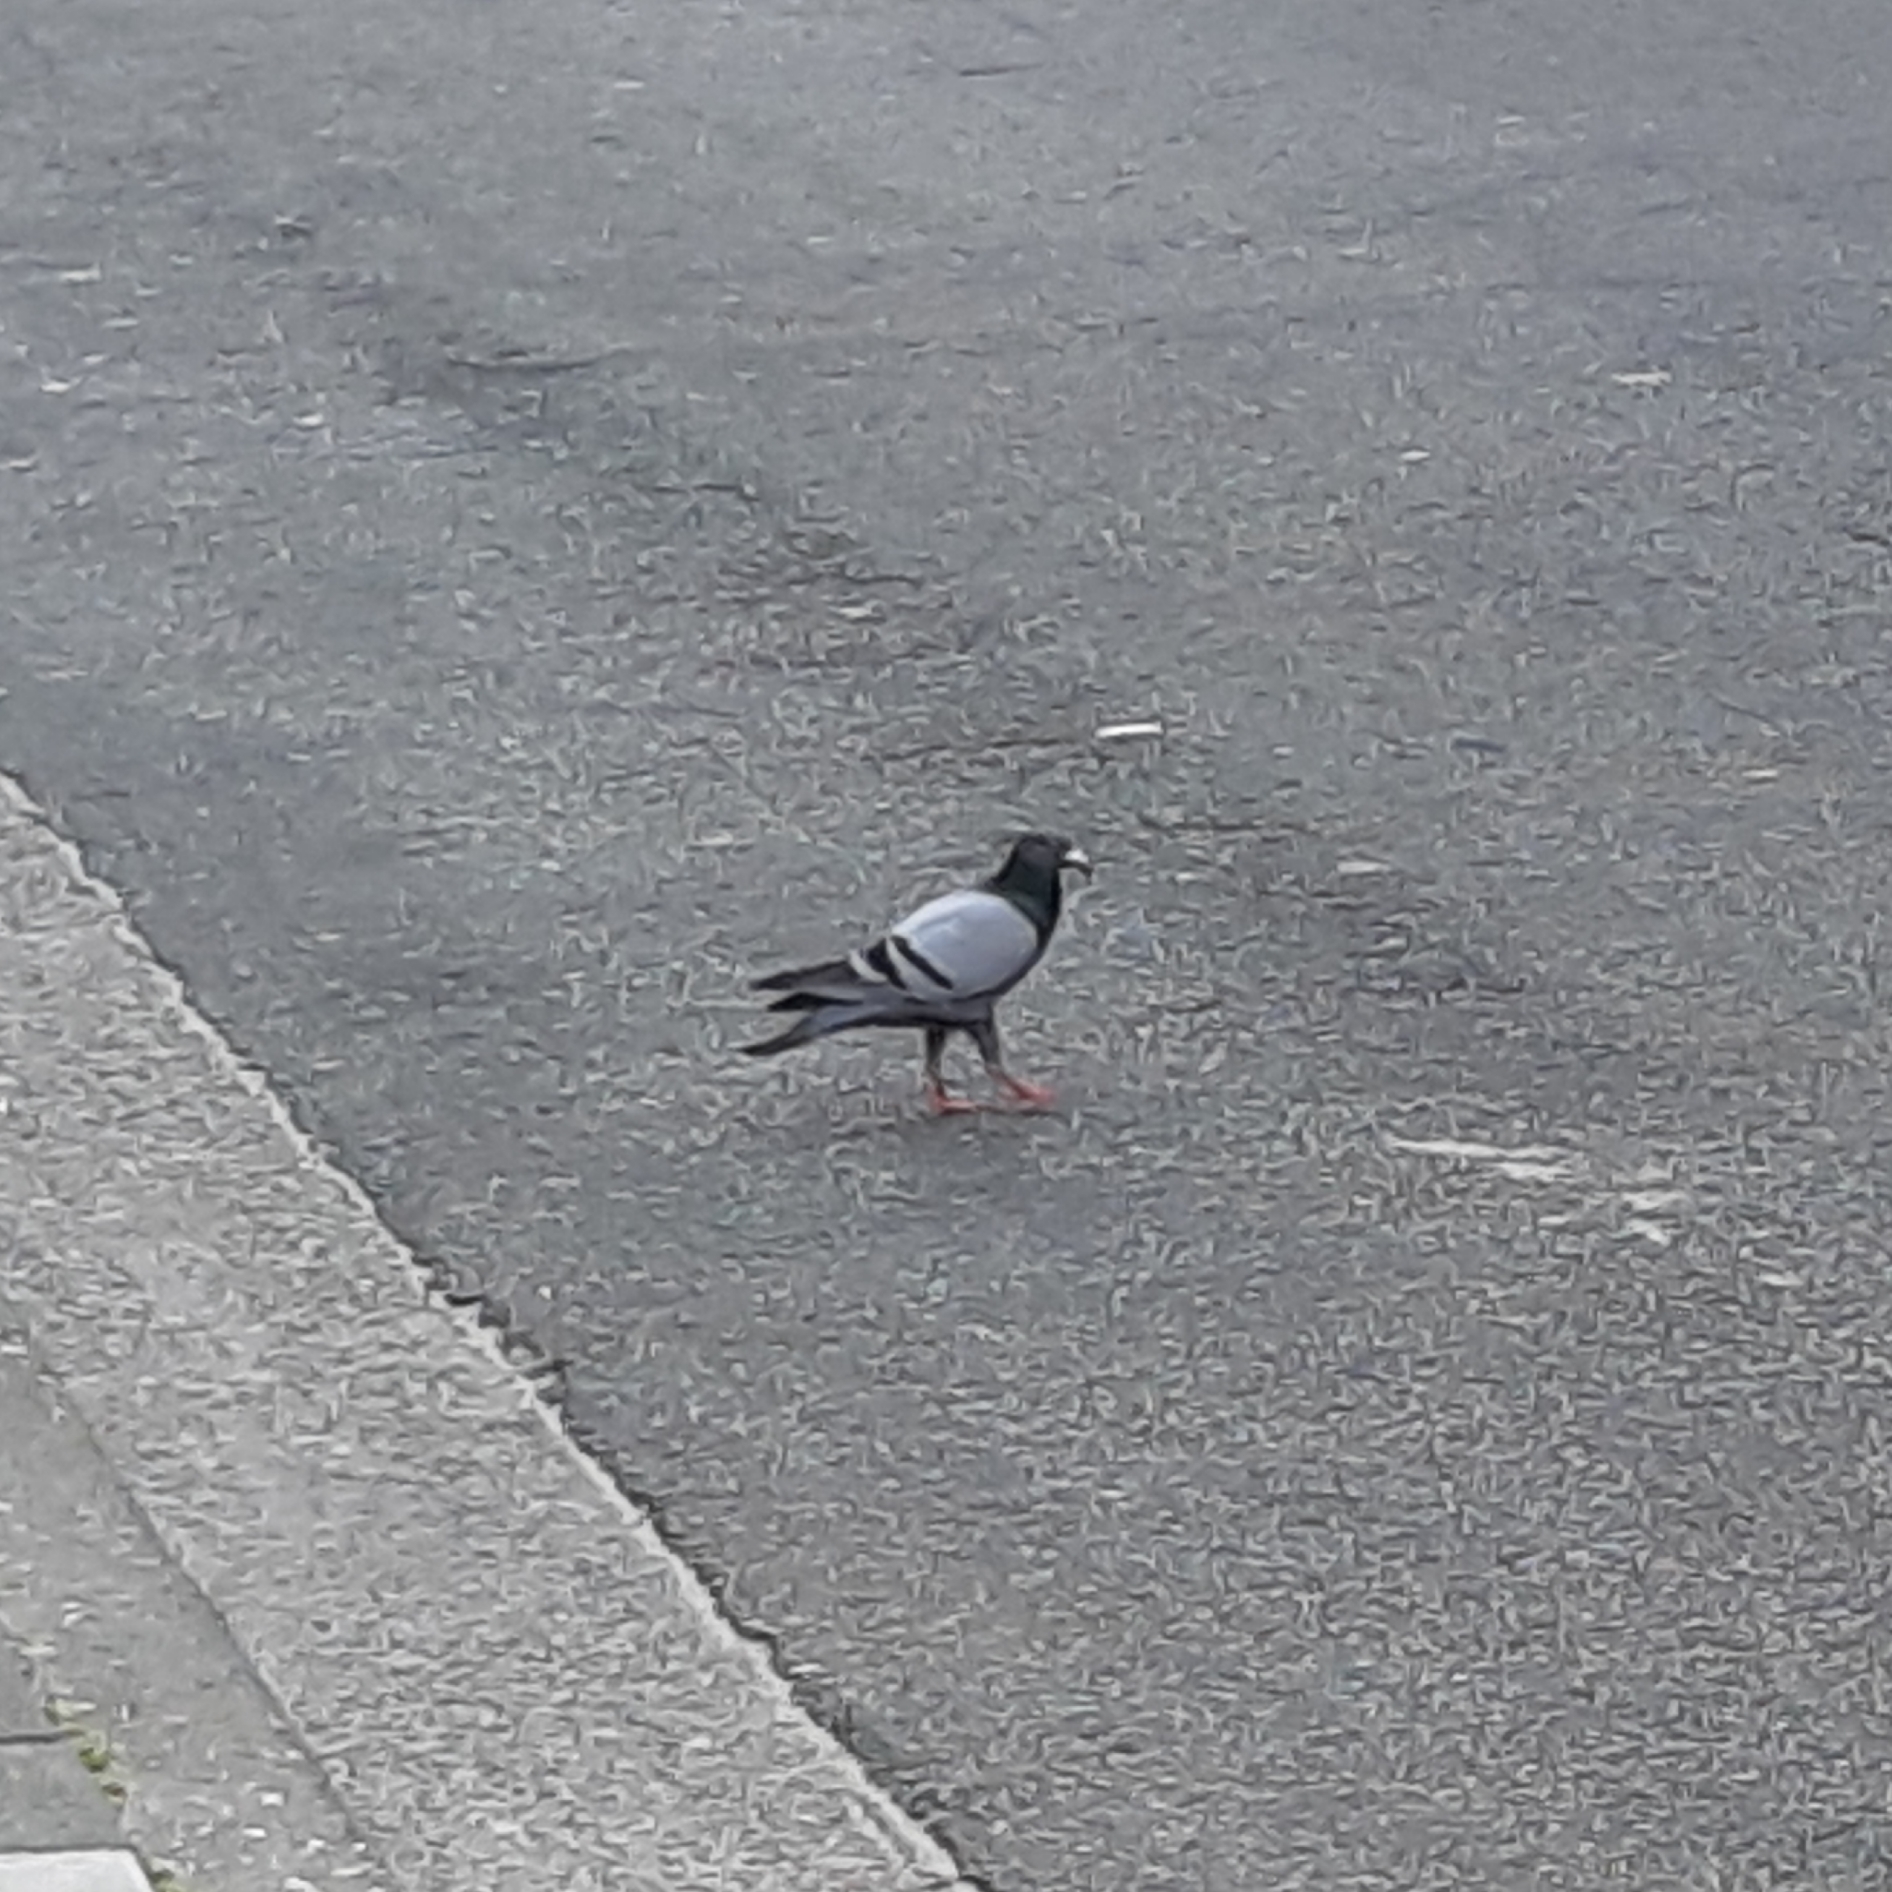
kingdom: Animalia
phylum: Chordata
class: Aves
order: Columbiformes
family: Columbidae
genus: Columba
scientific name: Columba livia
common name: Rock pigeon
